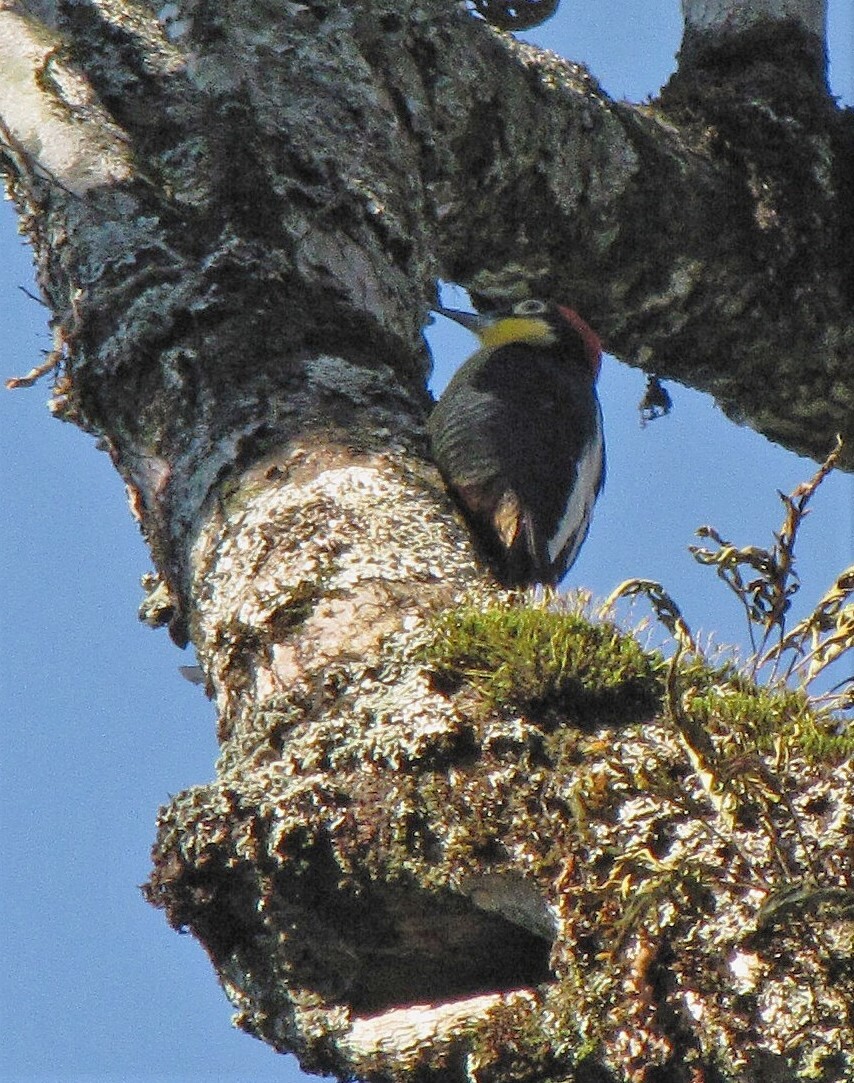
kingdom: Animalia
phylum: Chordata
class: Aves
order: Piciformes
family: Picidae
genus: Melanerpes
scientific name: Melanerpes flavifrons
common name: Yellow-fronted woodpecker
